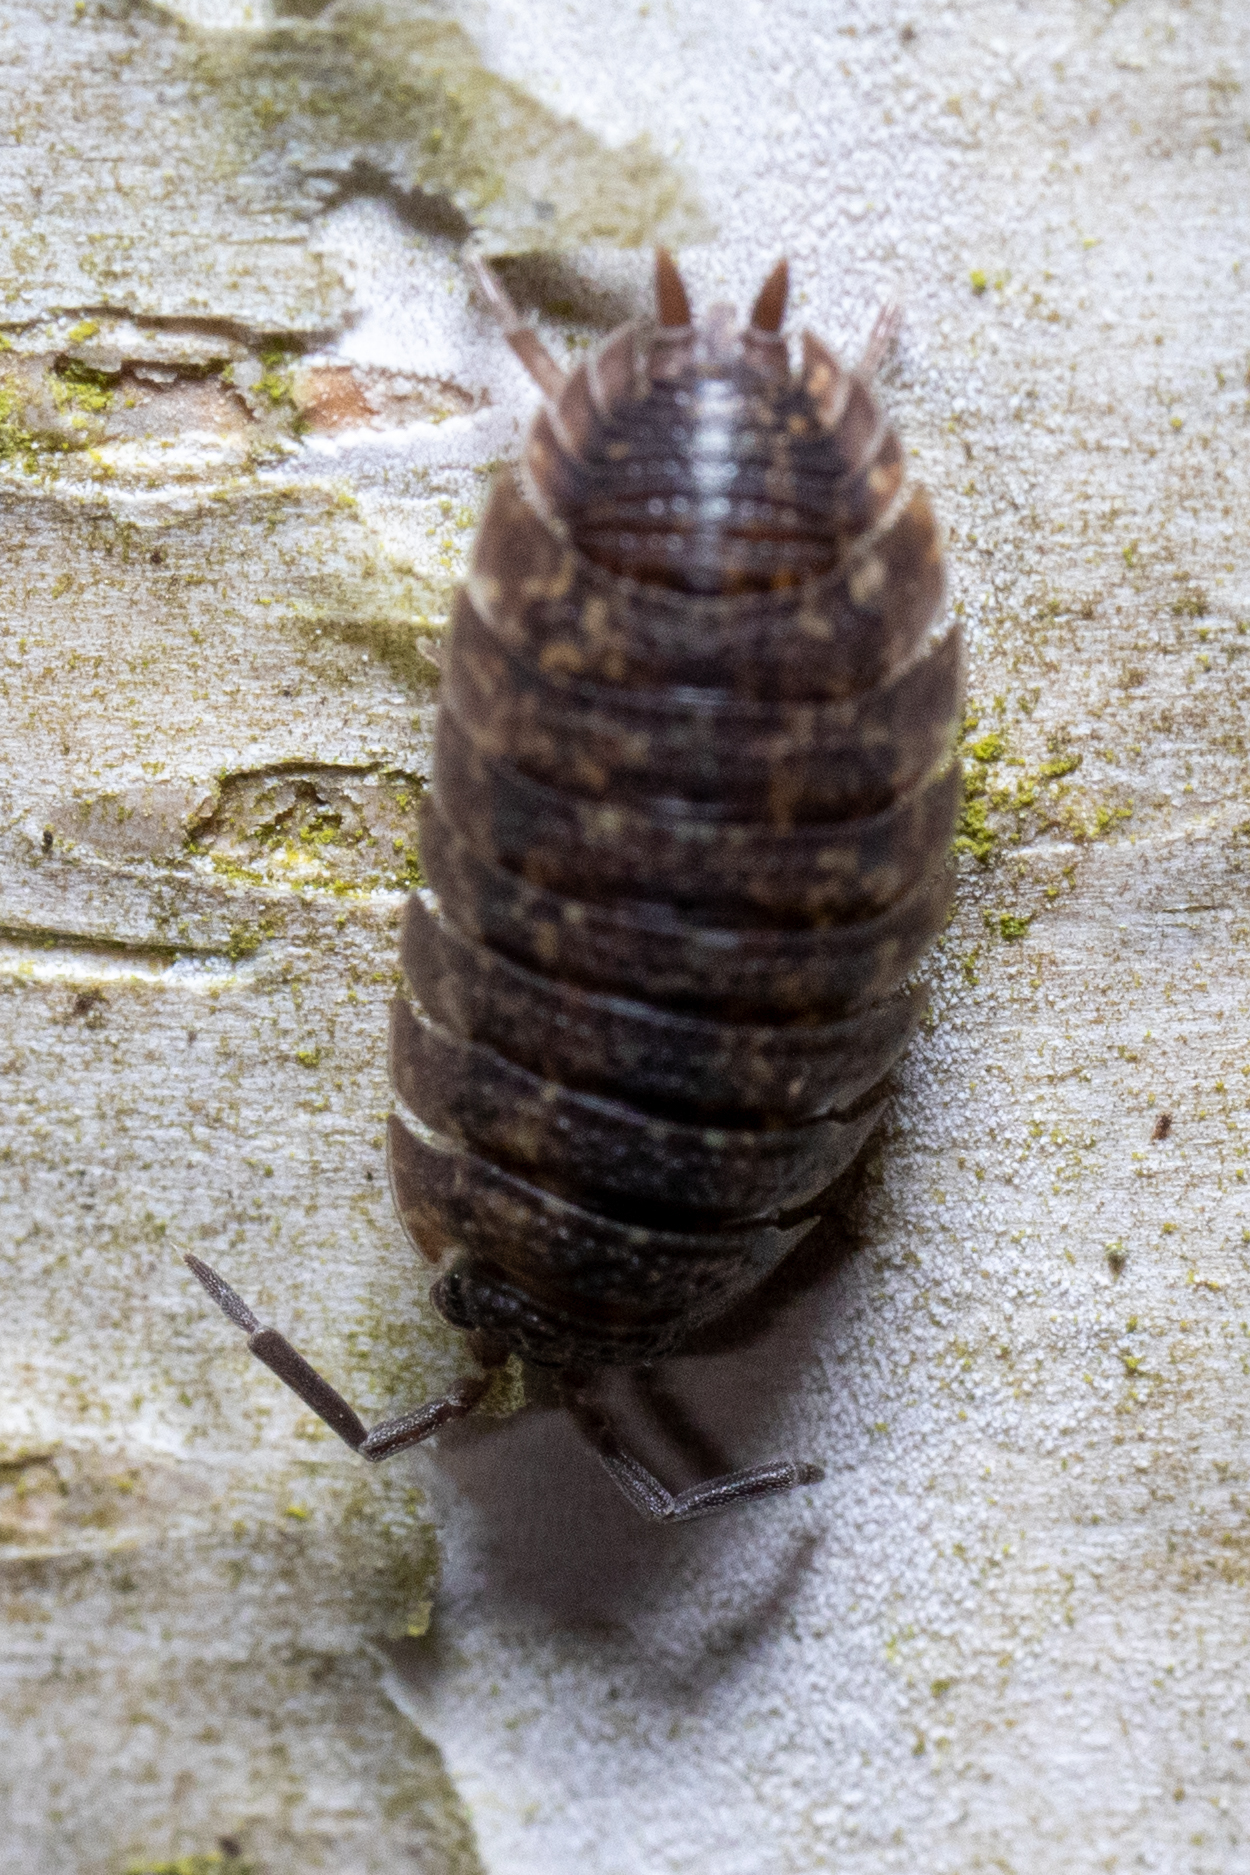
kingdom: Animalia
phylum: Arthropoda
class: Malacostraca
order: Isopoda
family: Porcellionidae
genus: Porcellio
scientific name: Porcellio scaber
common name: Common rough woodlouse
